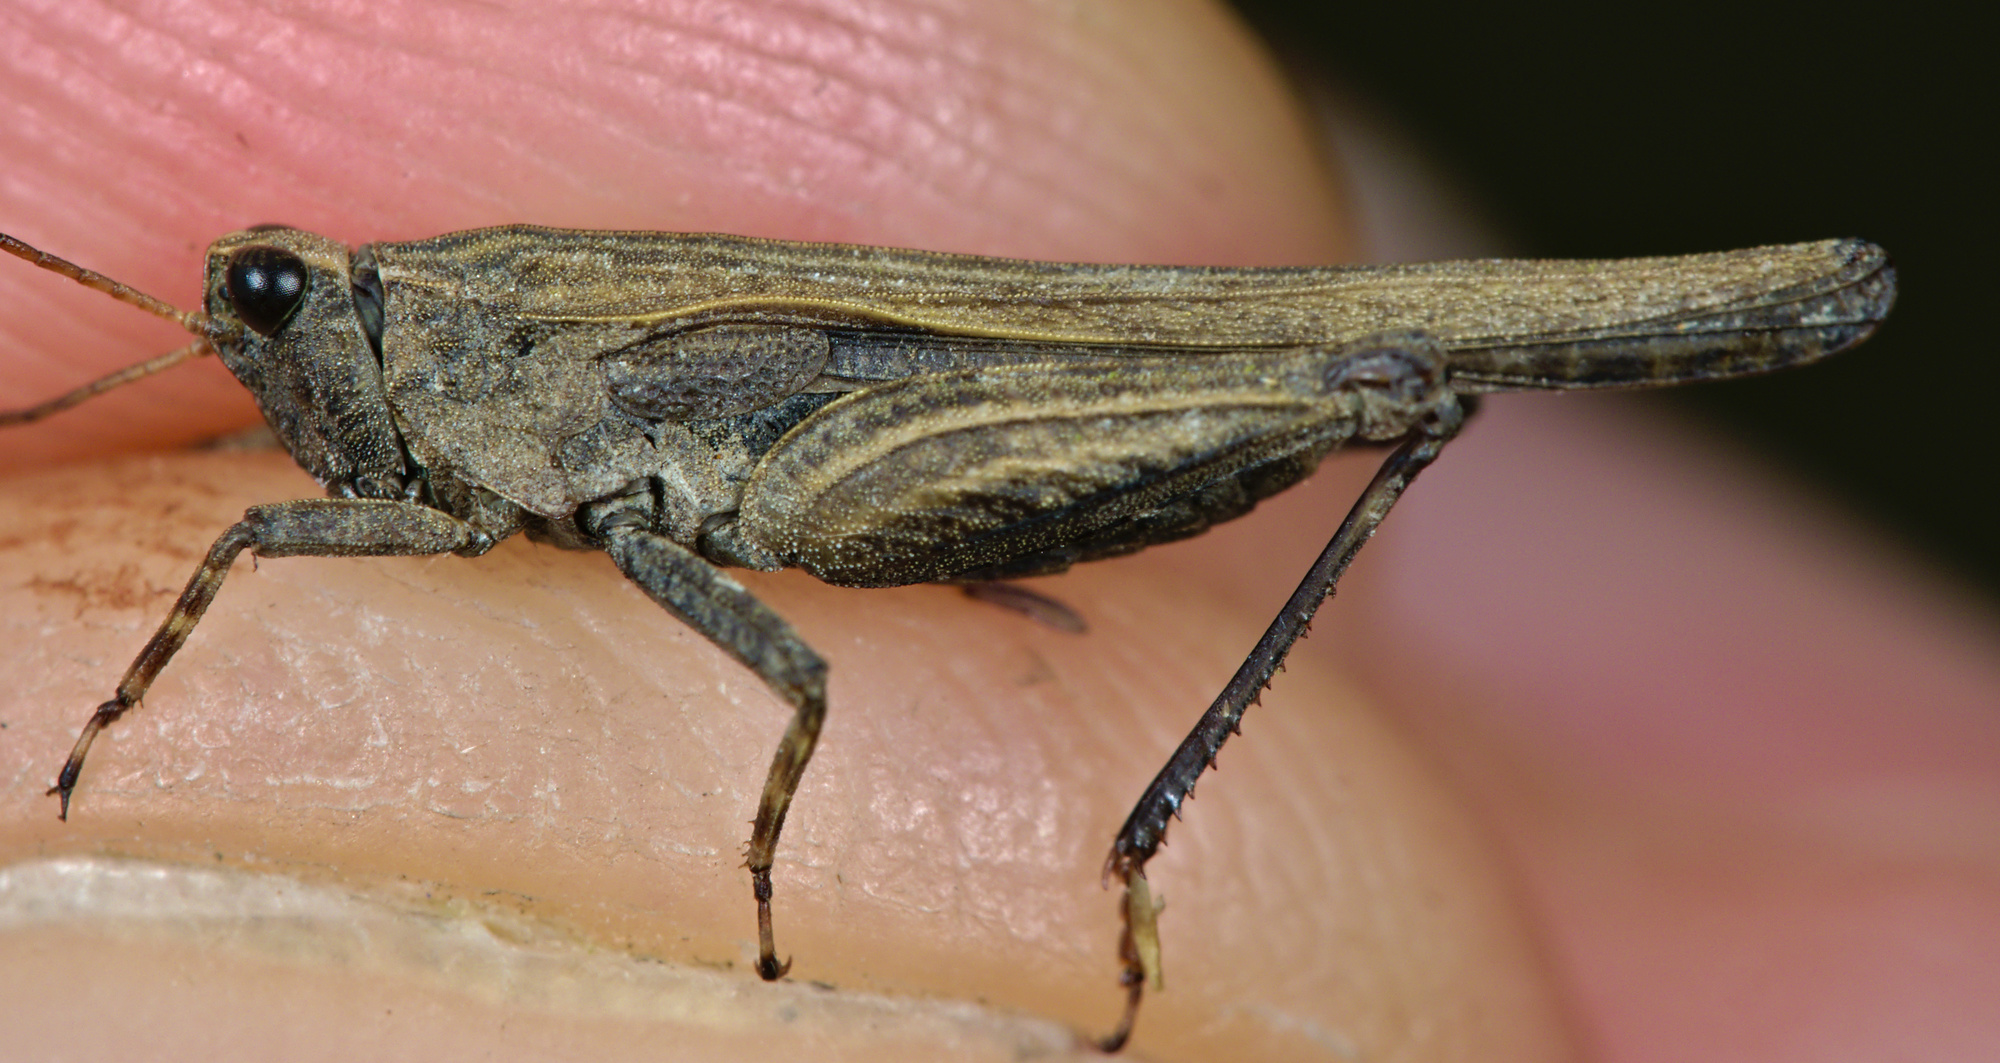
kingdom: Animalia
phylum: Arthropoda
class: Insecta
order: Orthoptera
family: Tetrigidae
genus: Tetrix
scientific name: Tetrix subulata
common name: Slender ground-hopper
